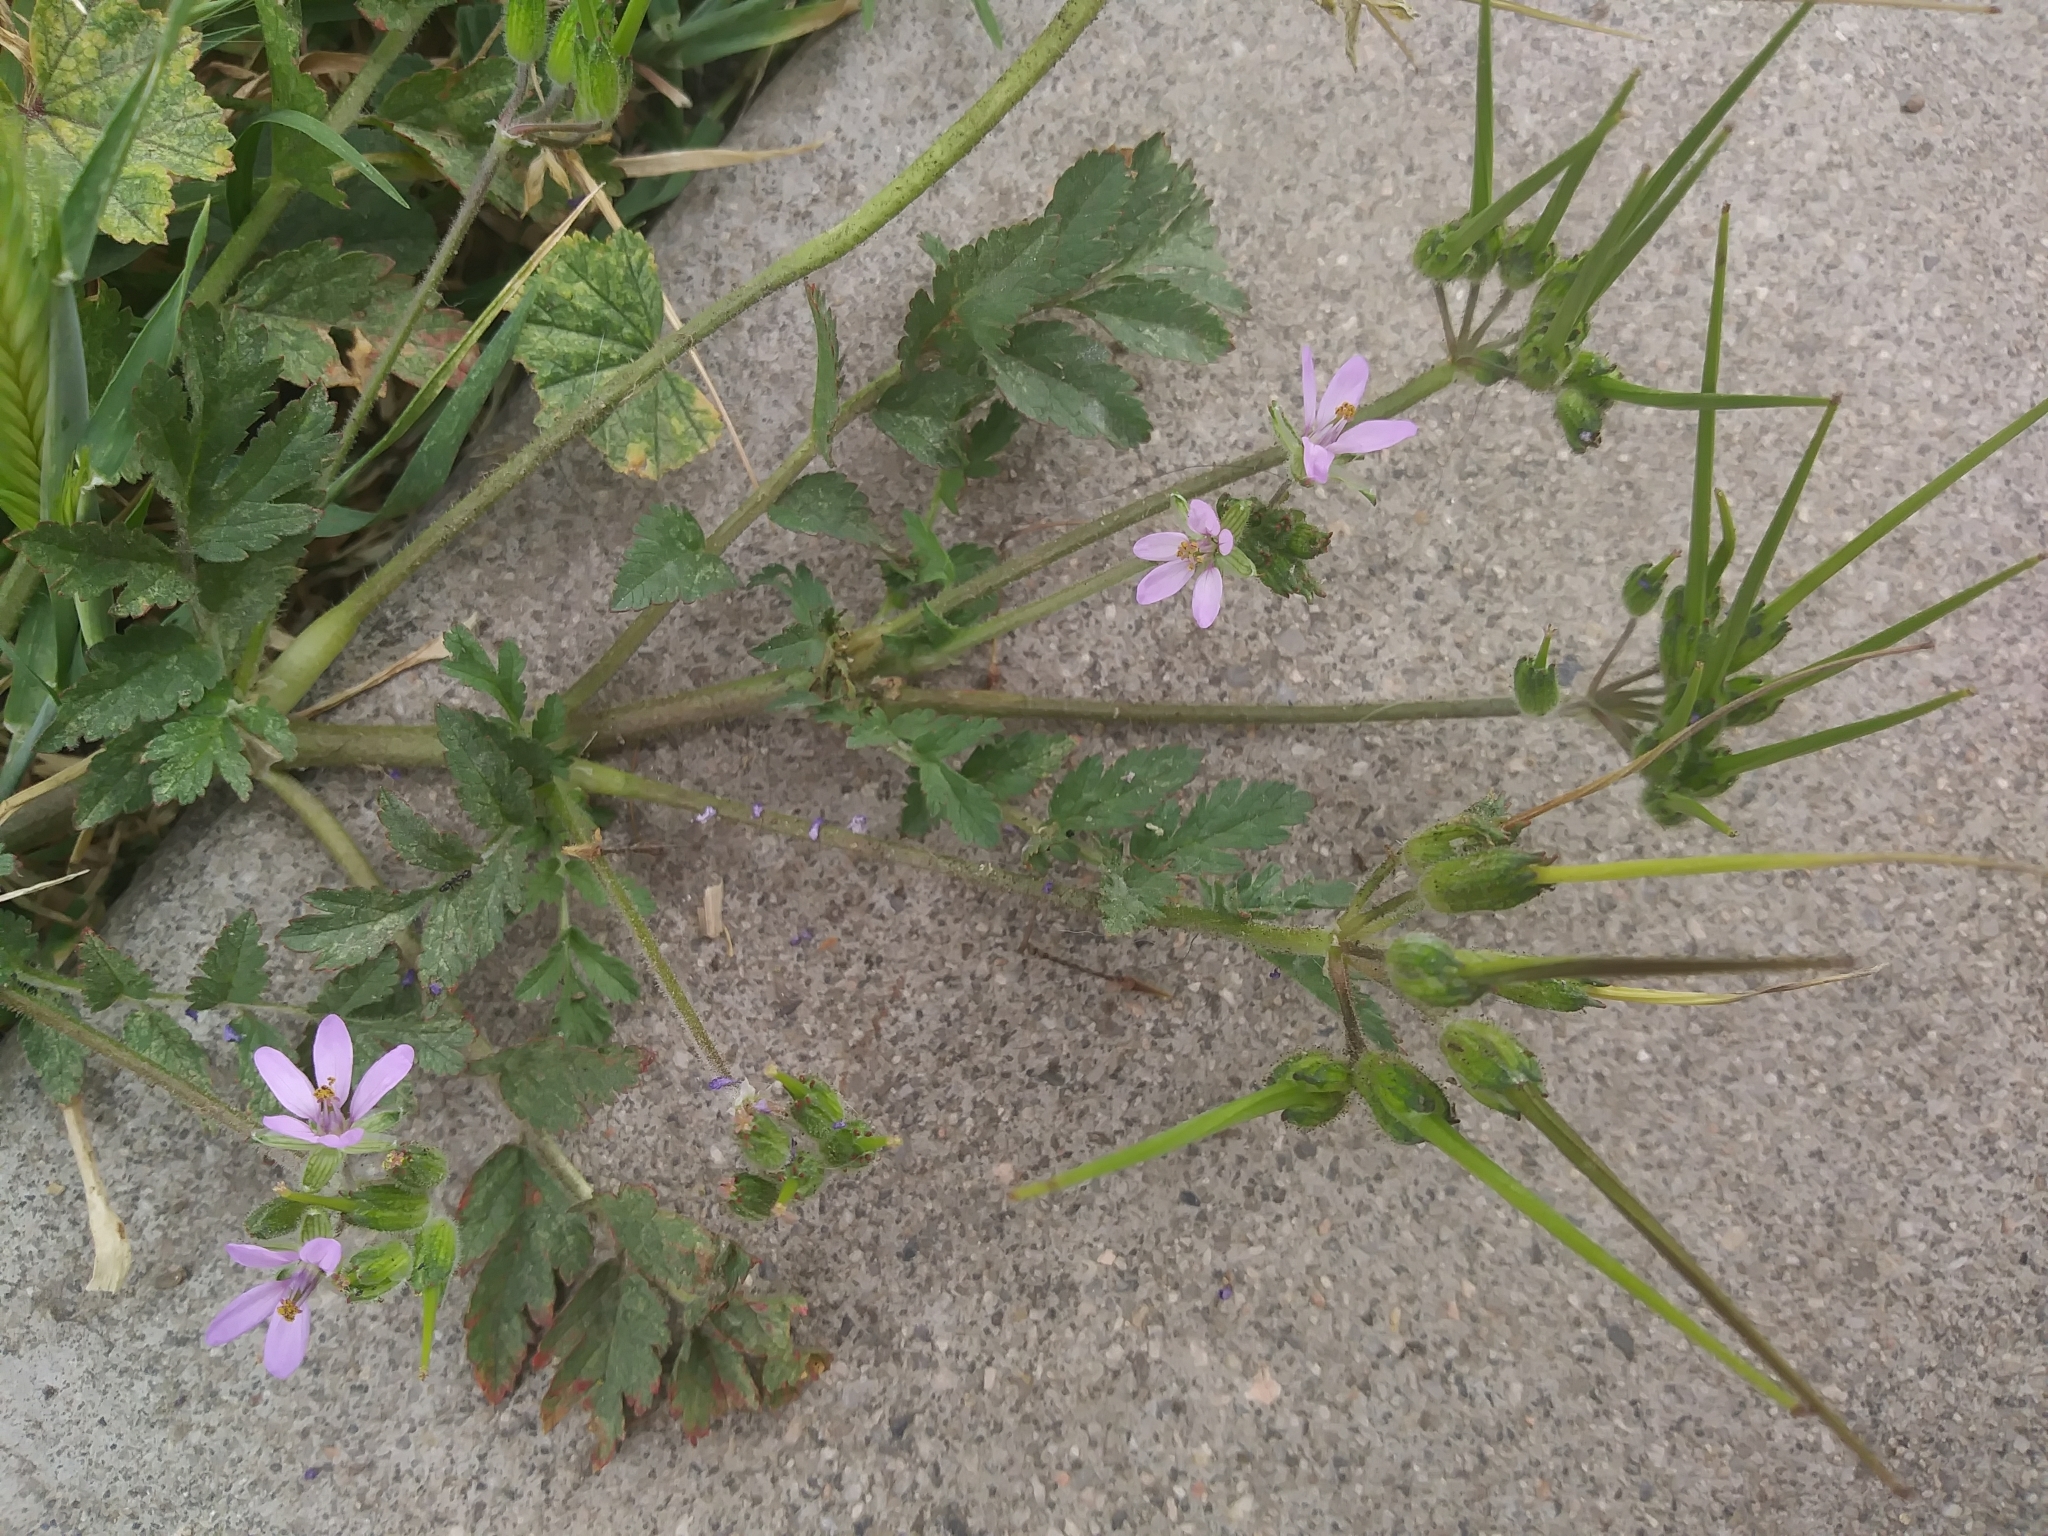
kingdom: Plantae
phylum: Tracheophyta
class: Magnoliopsida
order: Geraniales
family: Geraniaceae
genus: Erodium
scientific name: Erodium moschatum
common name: Musk stork's-bill
